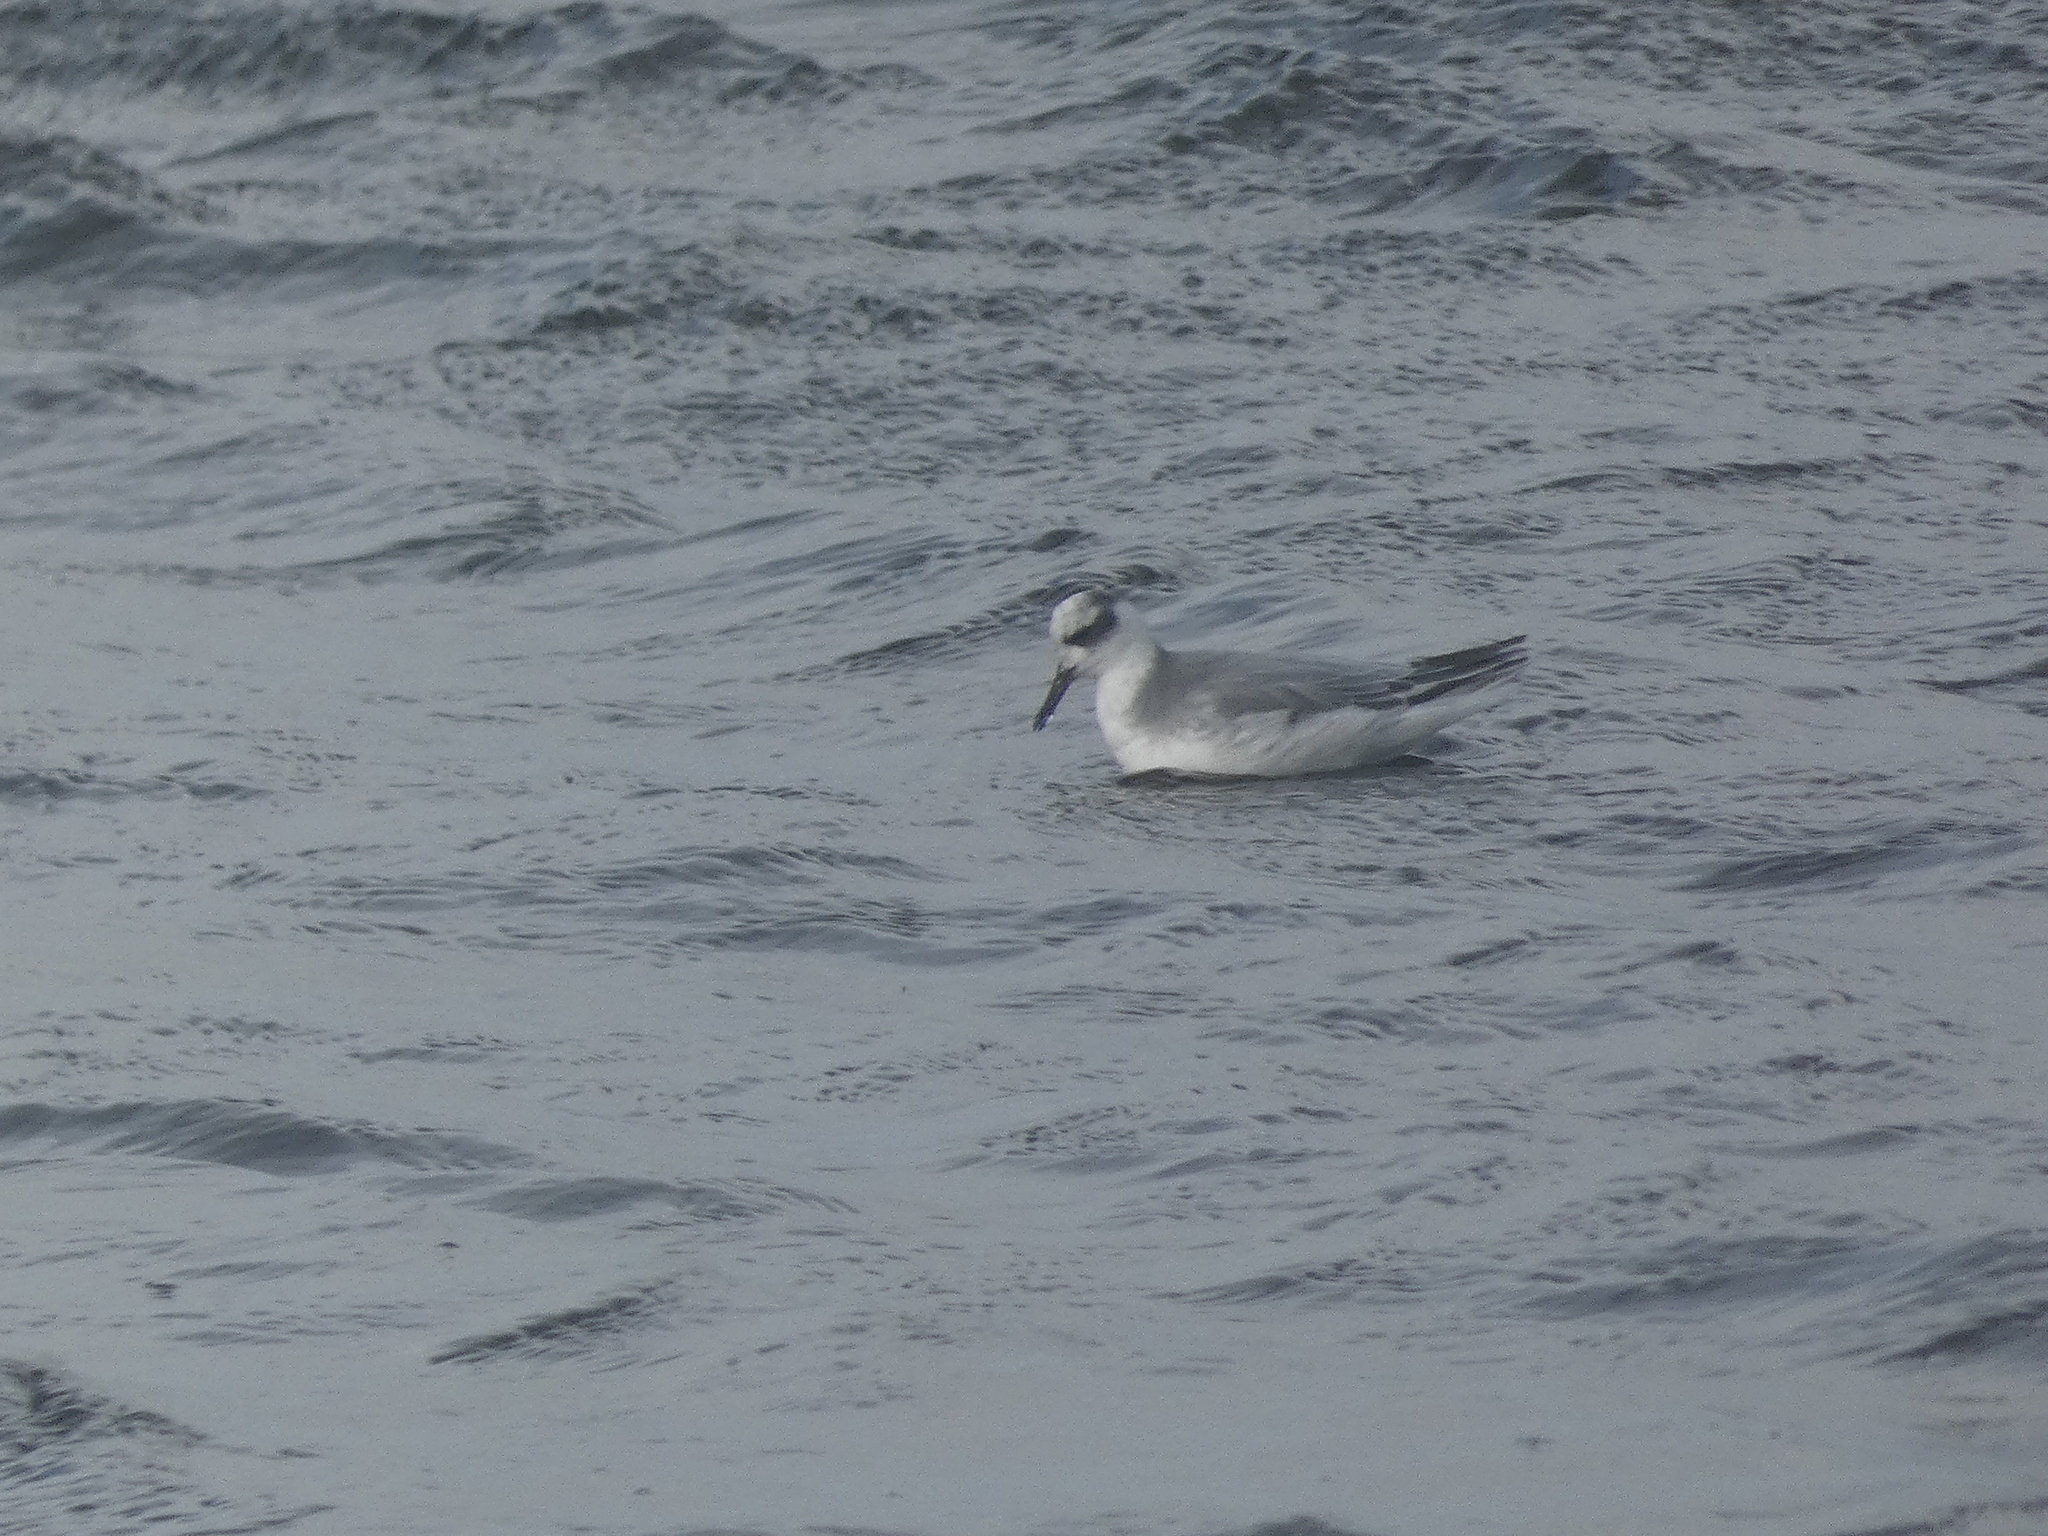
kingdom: Animalia
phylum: Chordata
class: Aves
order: Charadriiformes
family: Scolopacidae
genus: Phalaropus
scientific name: Phalaropus fulicarius
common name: Red phalarope
